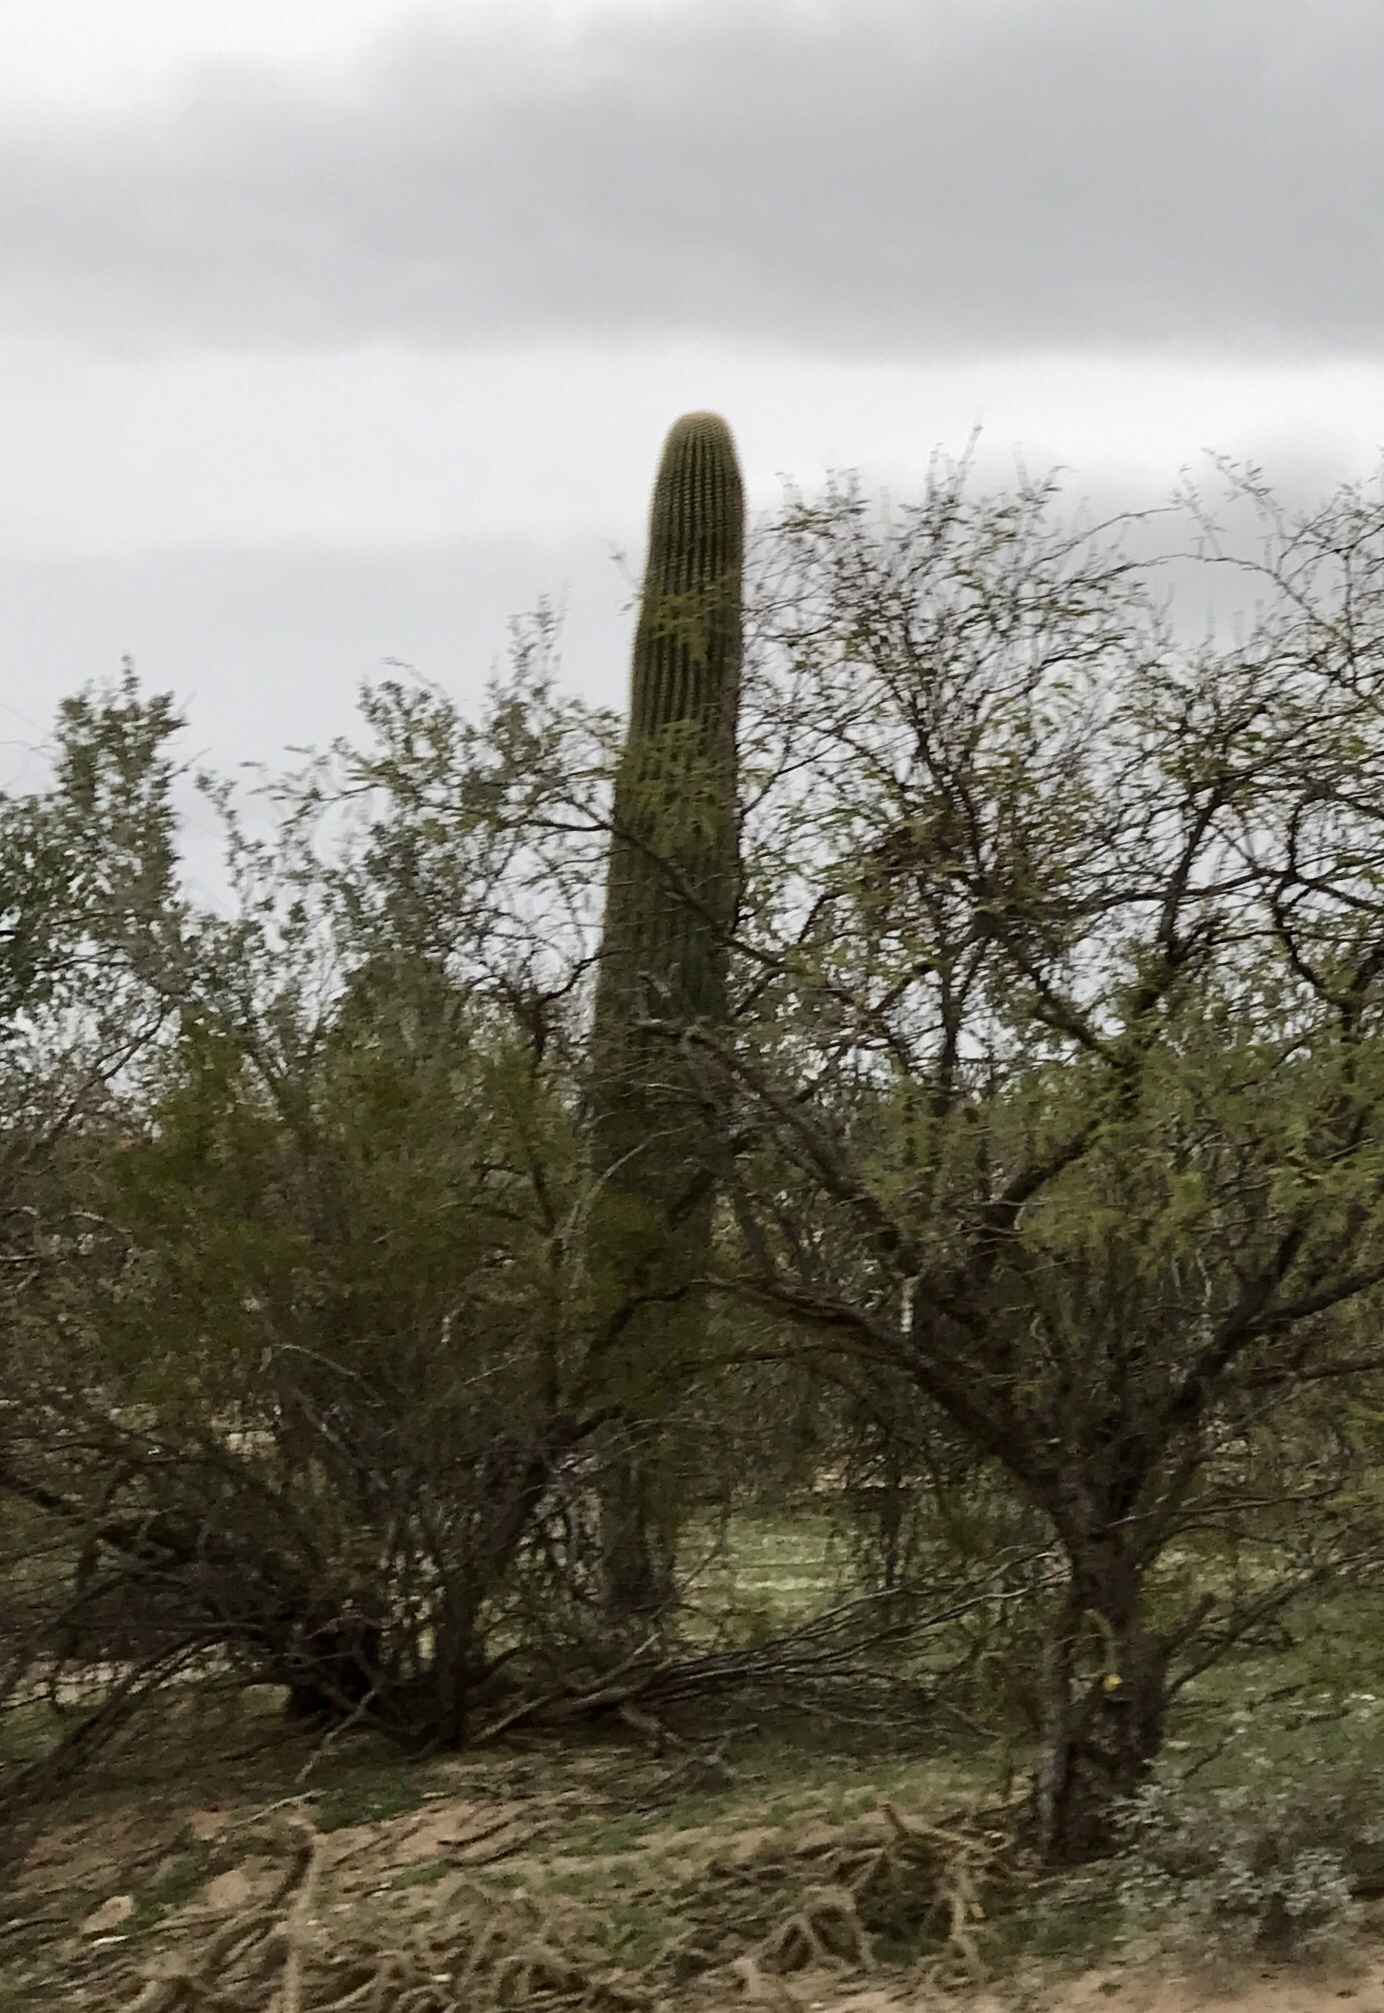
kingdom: Plantae
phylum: Tracheophyta
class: Magnoliopsida
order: Caryophyllales
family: Cactaceae
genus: Carnegiea
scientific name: Carnegiea gigantea
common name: Saguaro
